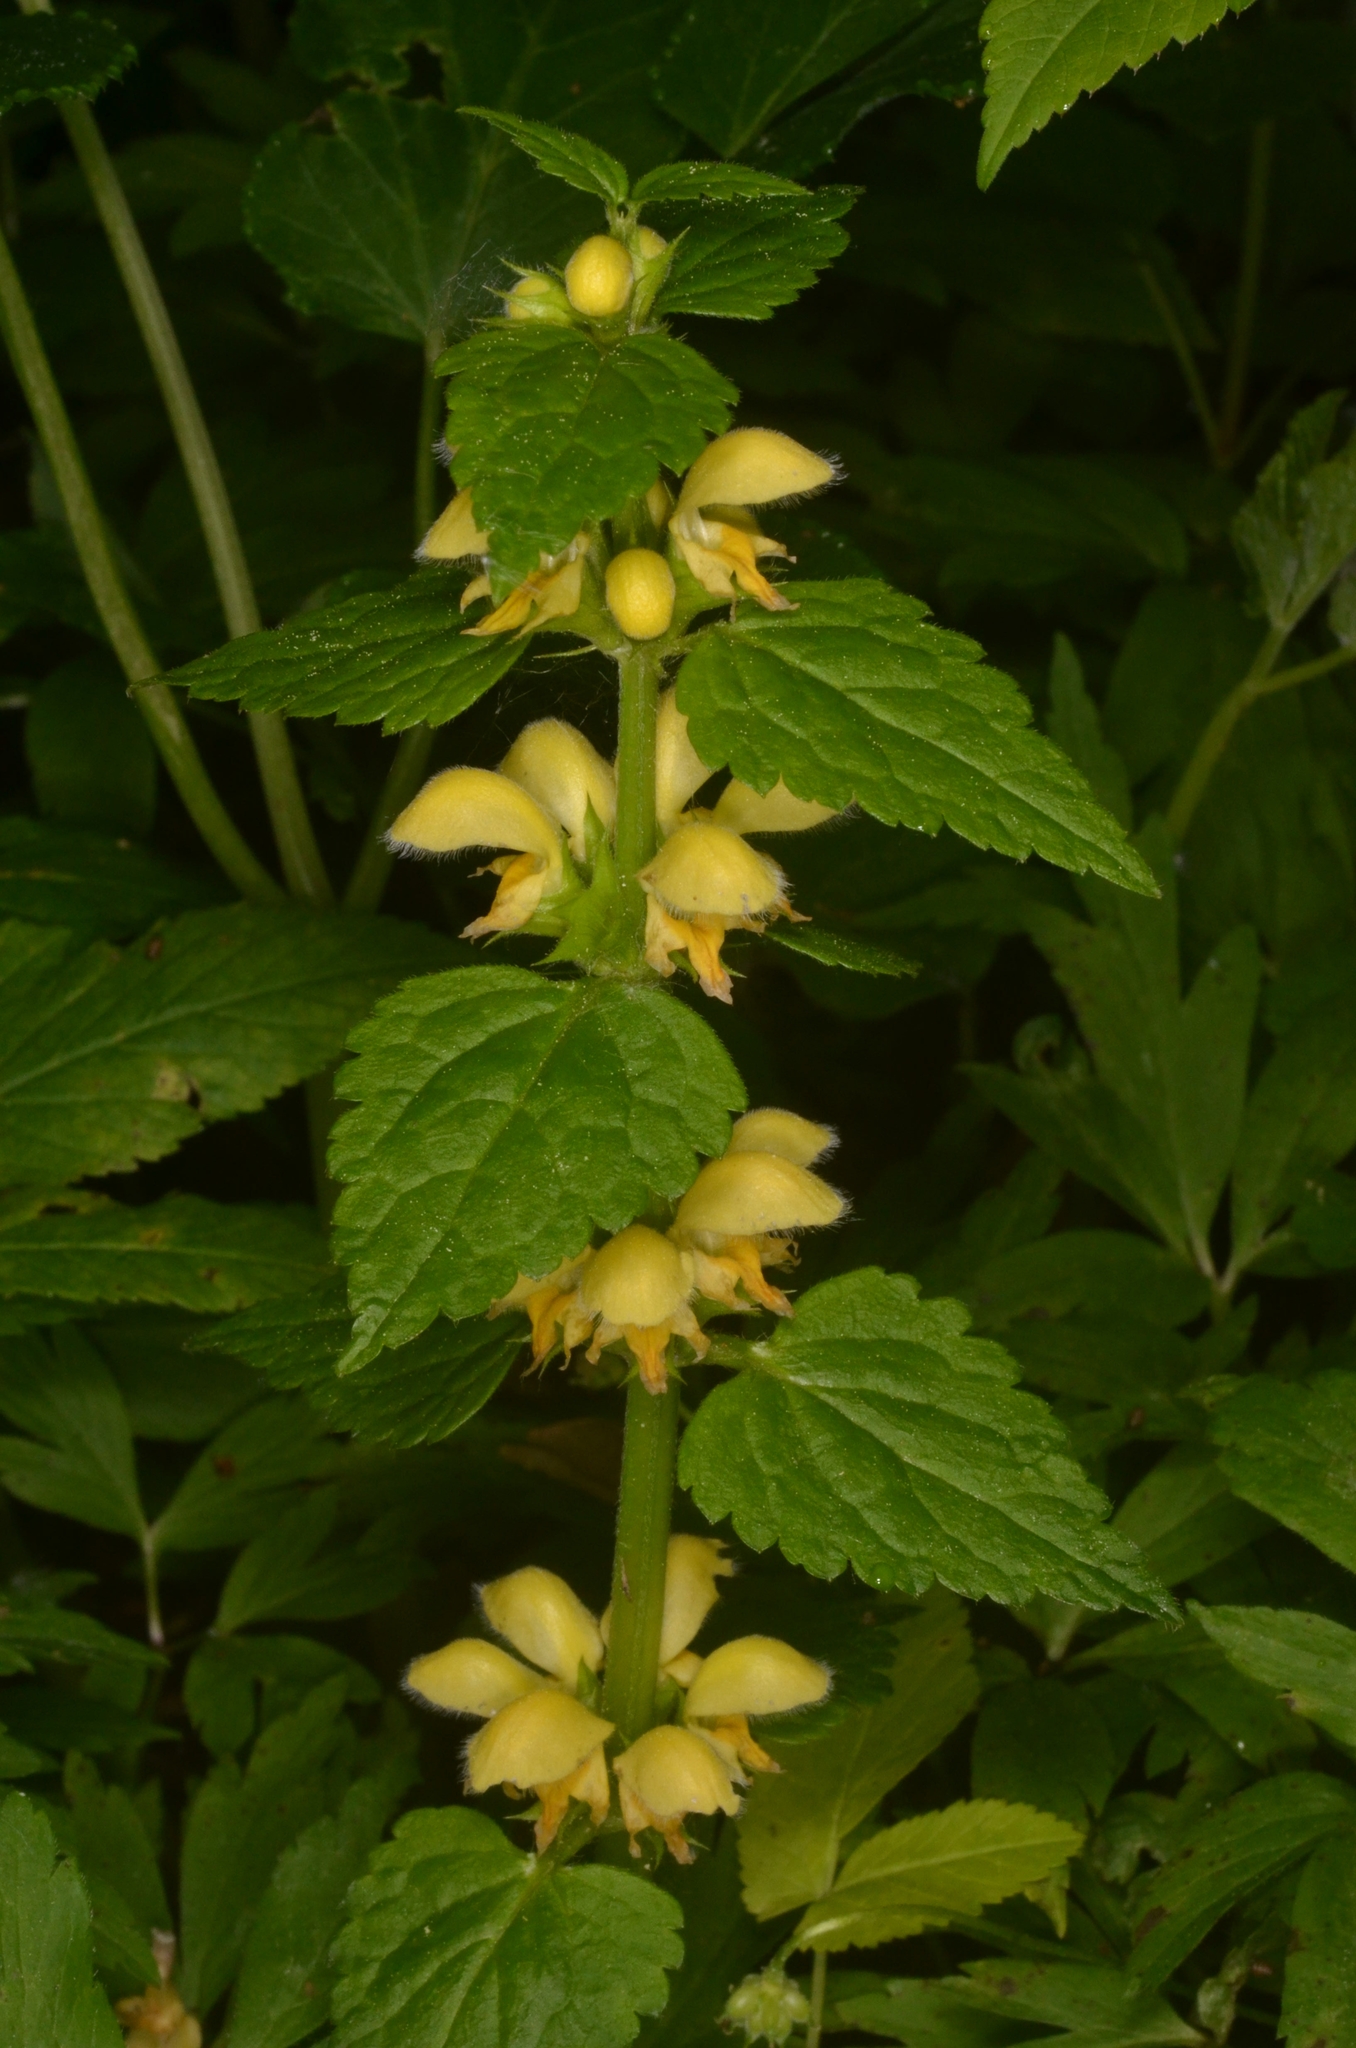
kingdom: Plantae
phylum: Tracheophyta
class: Magnoliopsida
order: Lamiales
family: Lamiaceae
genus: Lamium
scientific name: Lamium galeobdolon
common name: Yellow archangel
